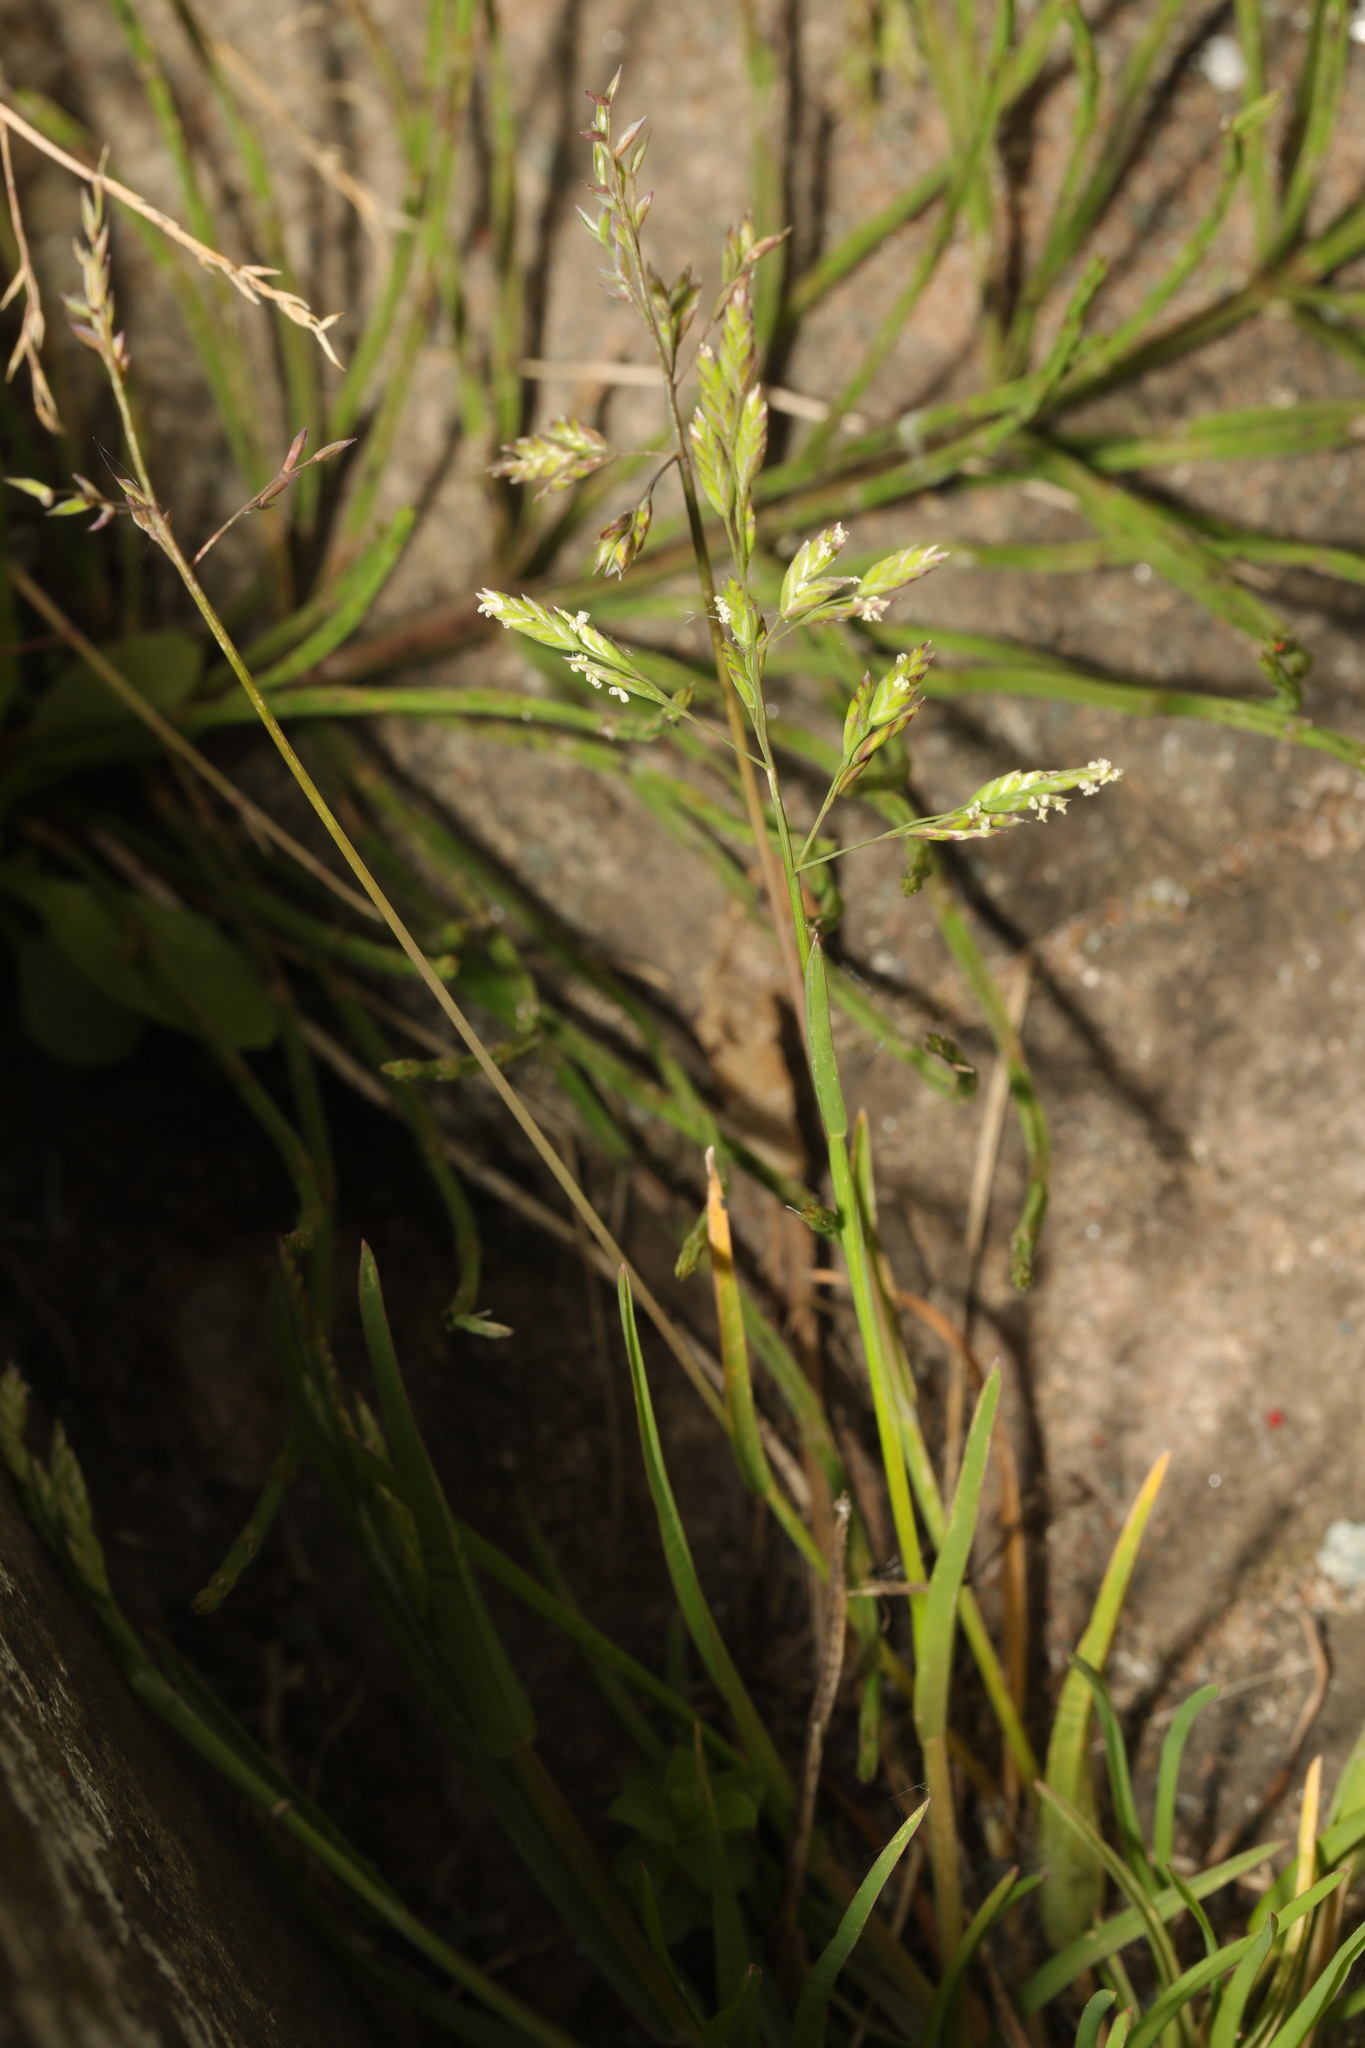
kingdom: Plantae
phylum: Tracheophyta
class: Liliopsida
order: Poales
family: Poaceae
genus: Poa
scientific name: Poa annua
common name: Annual bluegrass
